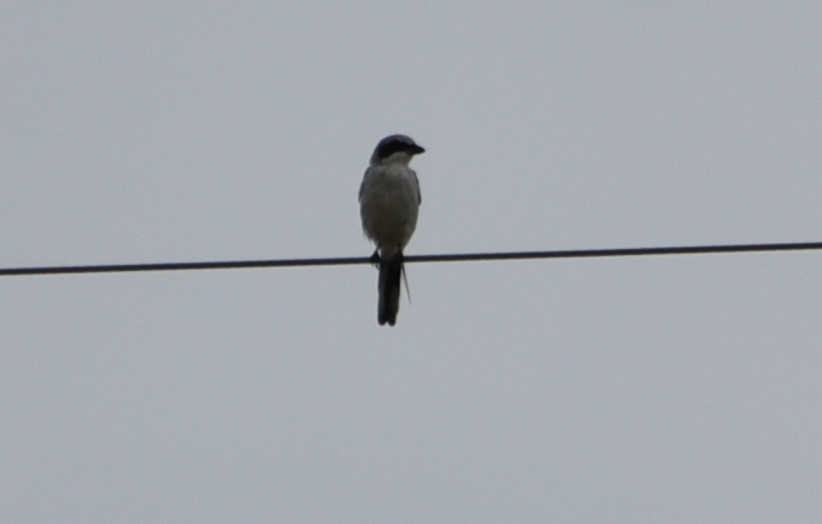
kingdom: Animalia
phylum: Chordata
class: Aves
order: Passeriformes
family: Laniidae
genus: Lanius
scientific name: Lanius ludovicianus
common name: Loggerhead shrike
